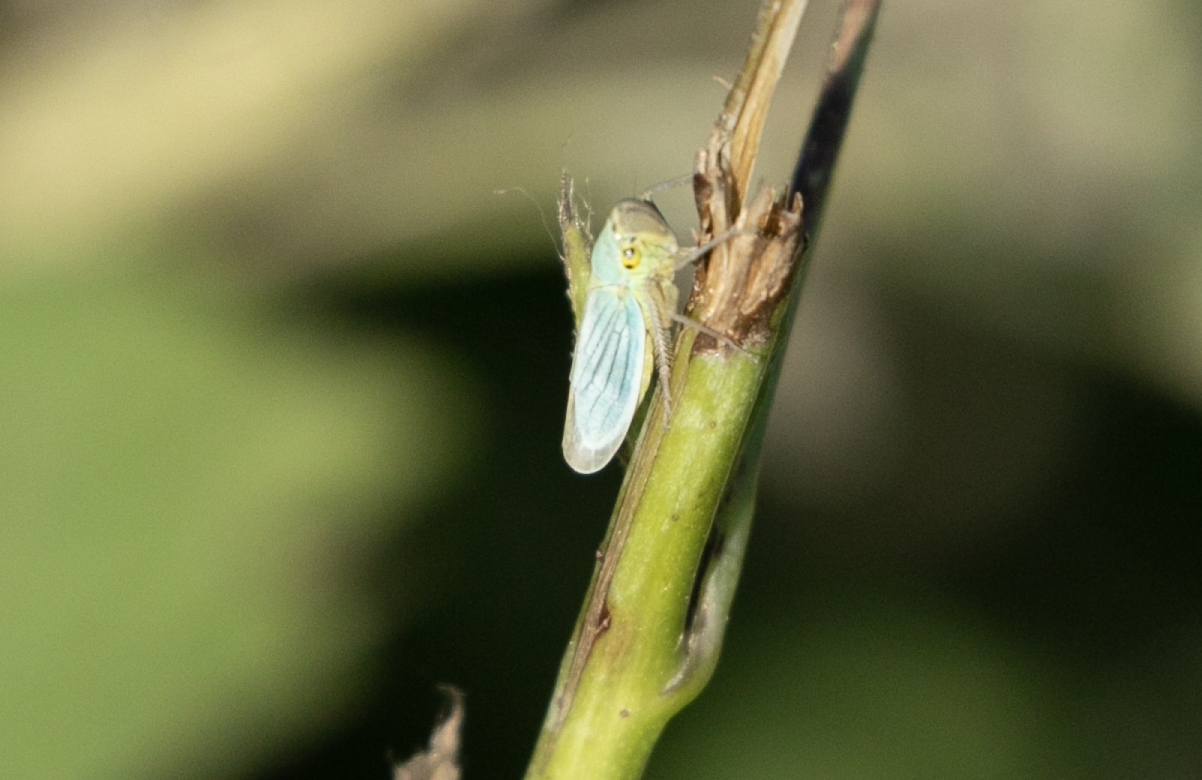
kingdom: Animalia
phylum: Arthropoda
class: Insecta
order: Hemiptera
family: Cicadellidae
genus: Cicadella
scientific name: Cicadella viridis
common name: Leafhopper
